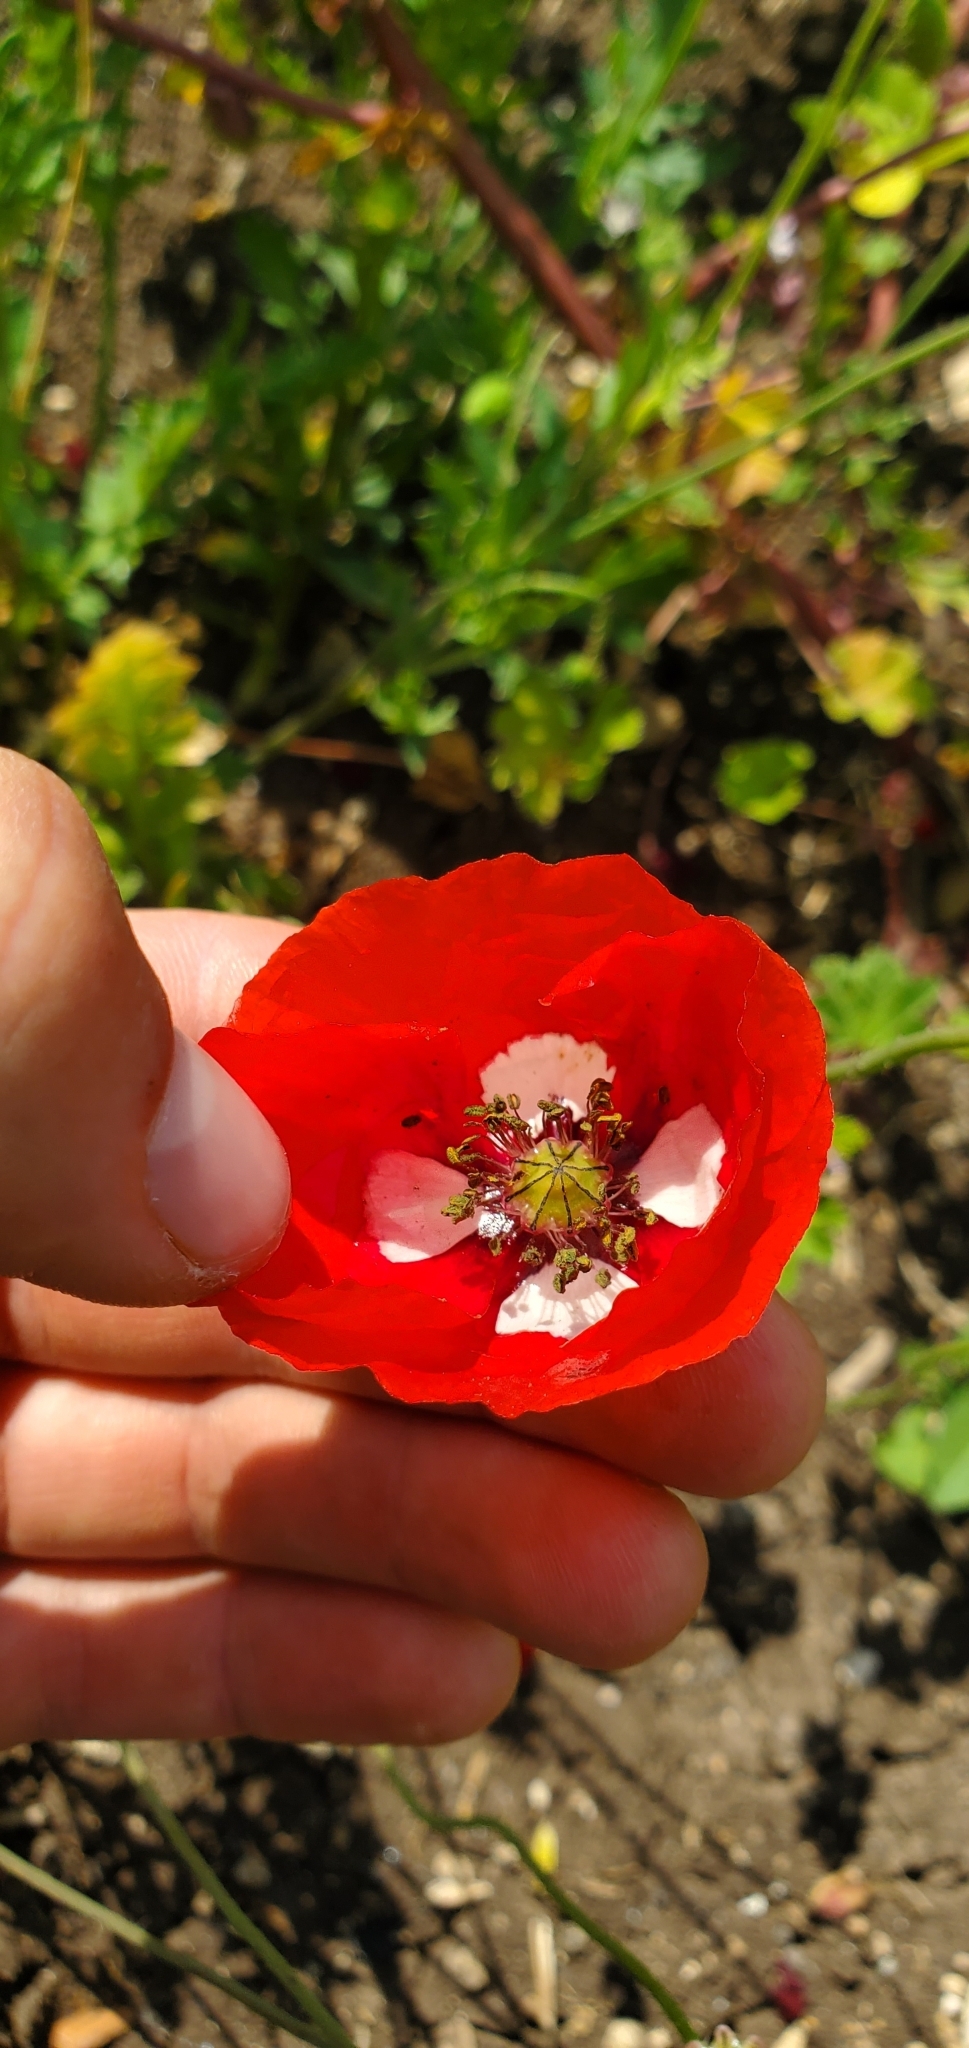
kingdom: Plantae
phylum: Tracheophyta
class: Magnoliopsida
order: Ranunculales
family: Papaveraceae
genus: Papaver
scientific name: Papaver umbonatum
